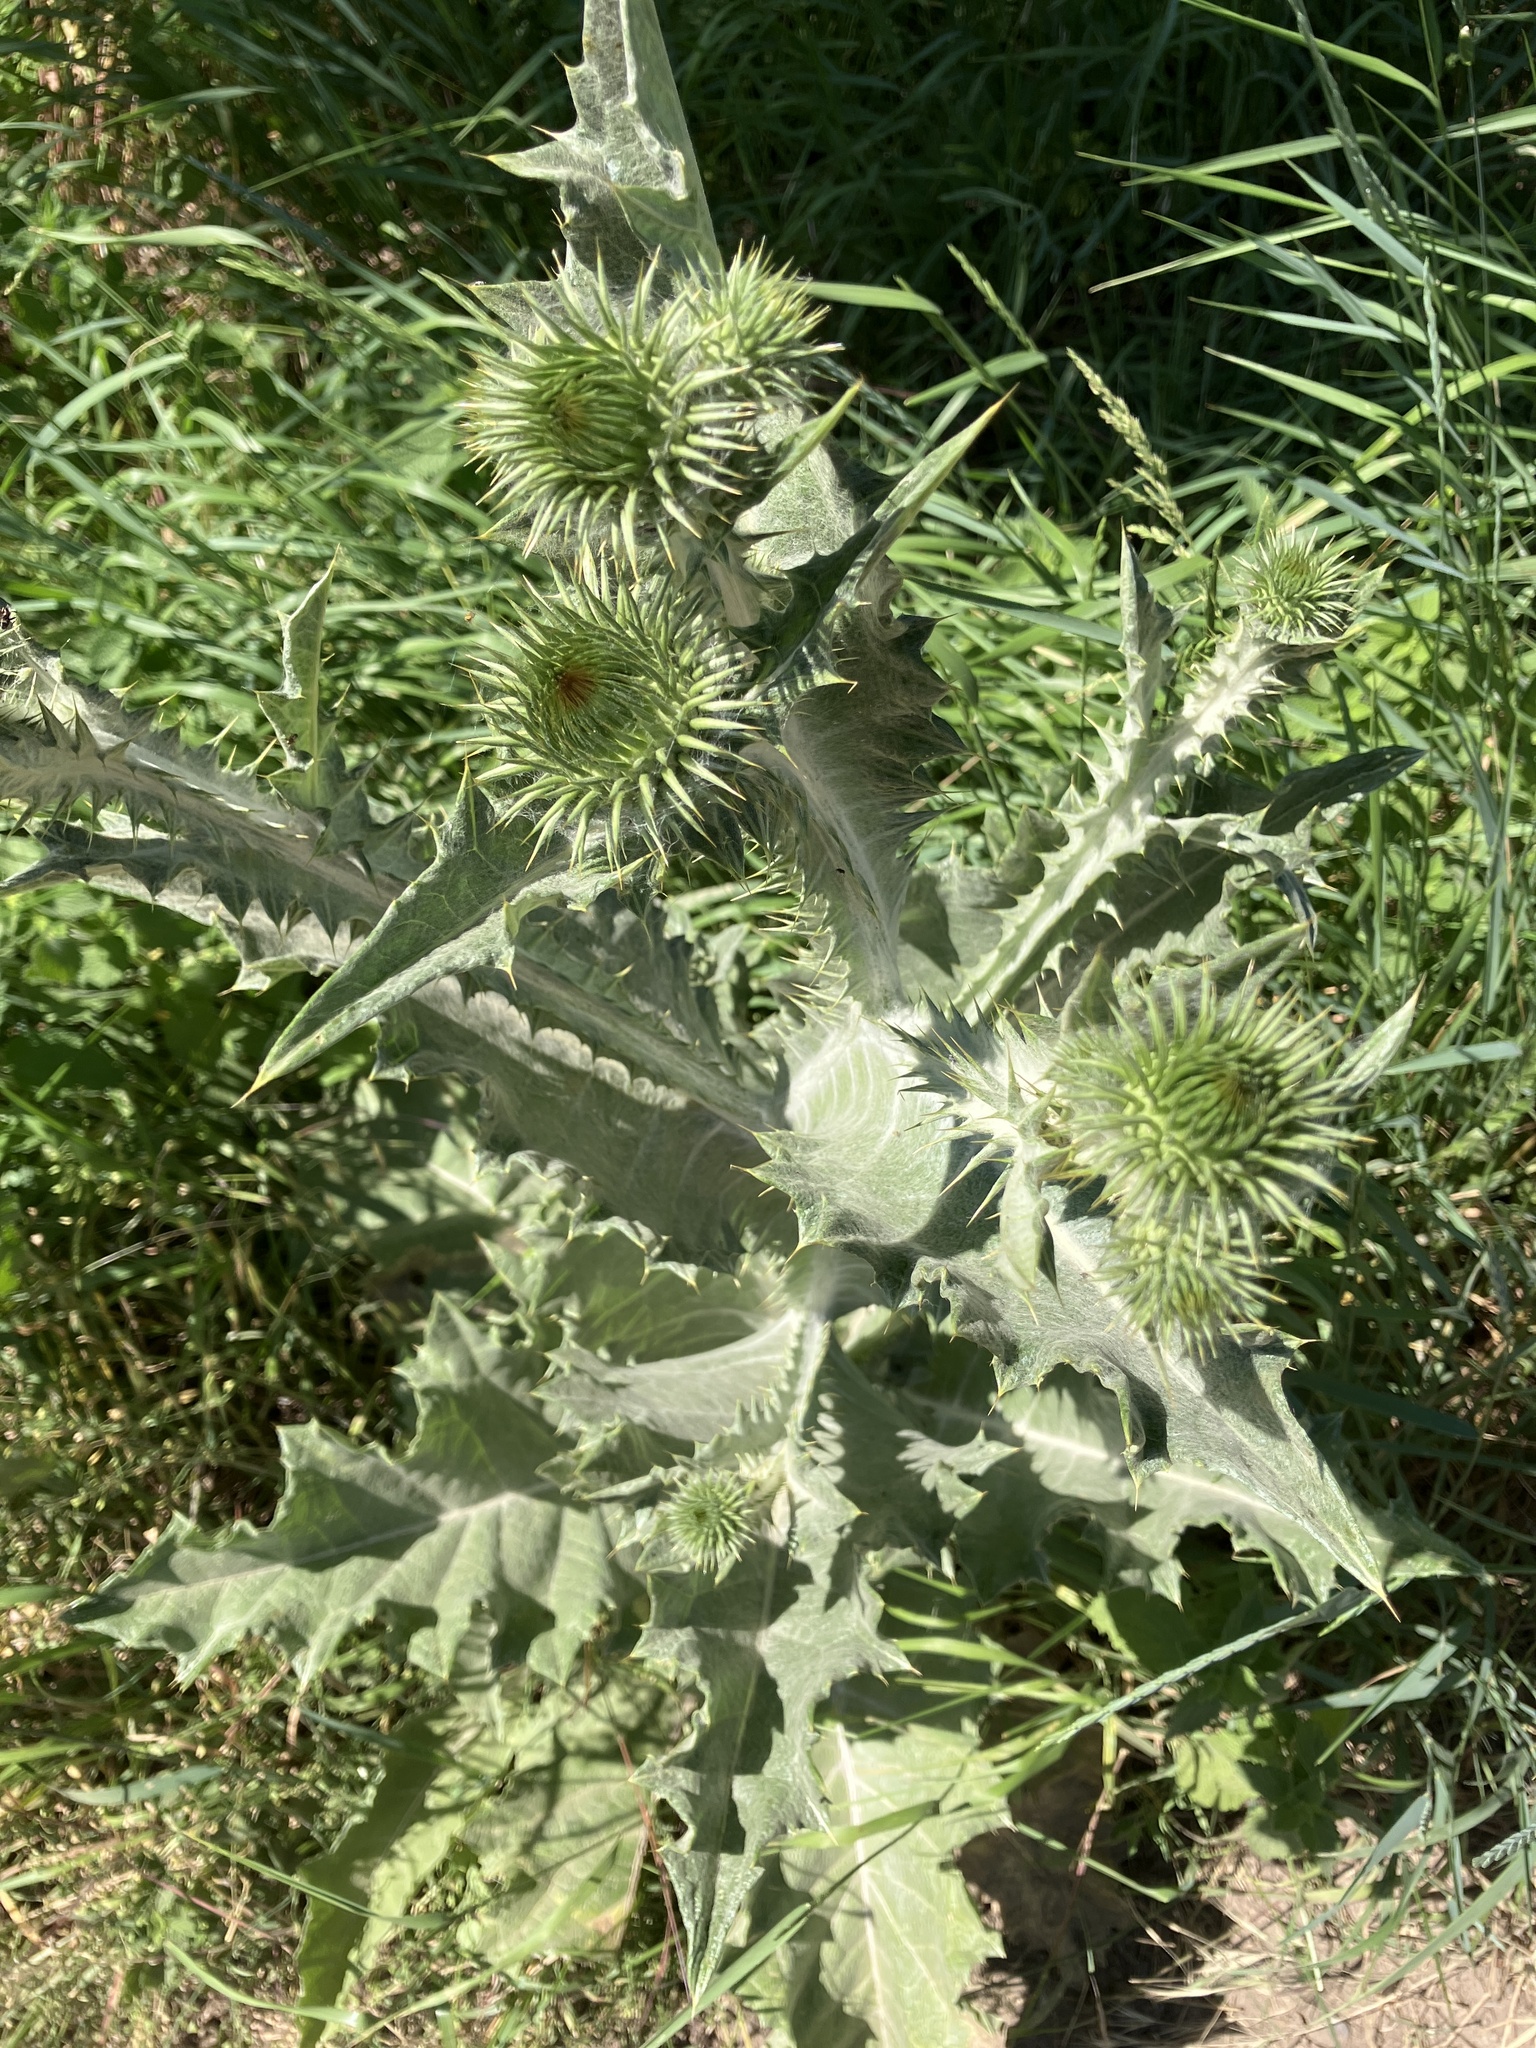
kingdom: Plantae
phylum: Tracheophyta
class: Magnoliopsida
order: Asterales
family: Asteraceae
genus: Onopordum
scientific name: Onopordum acanthium
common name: Scotch thistle
